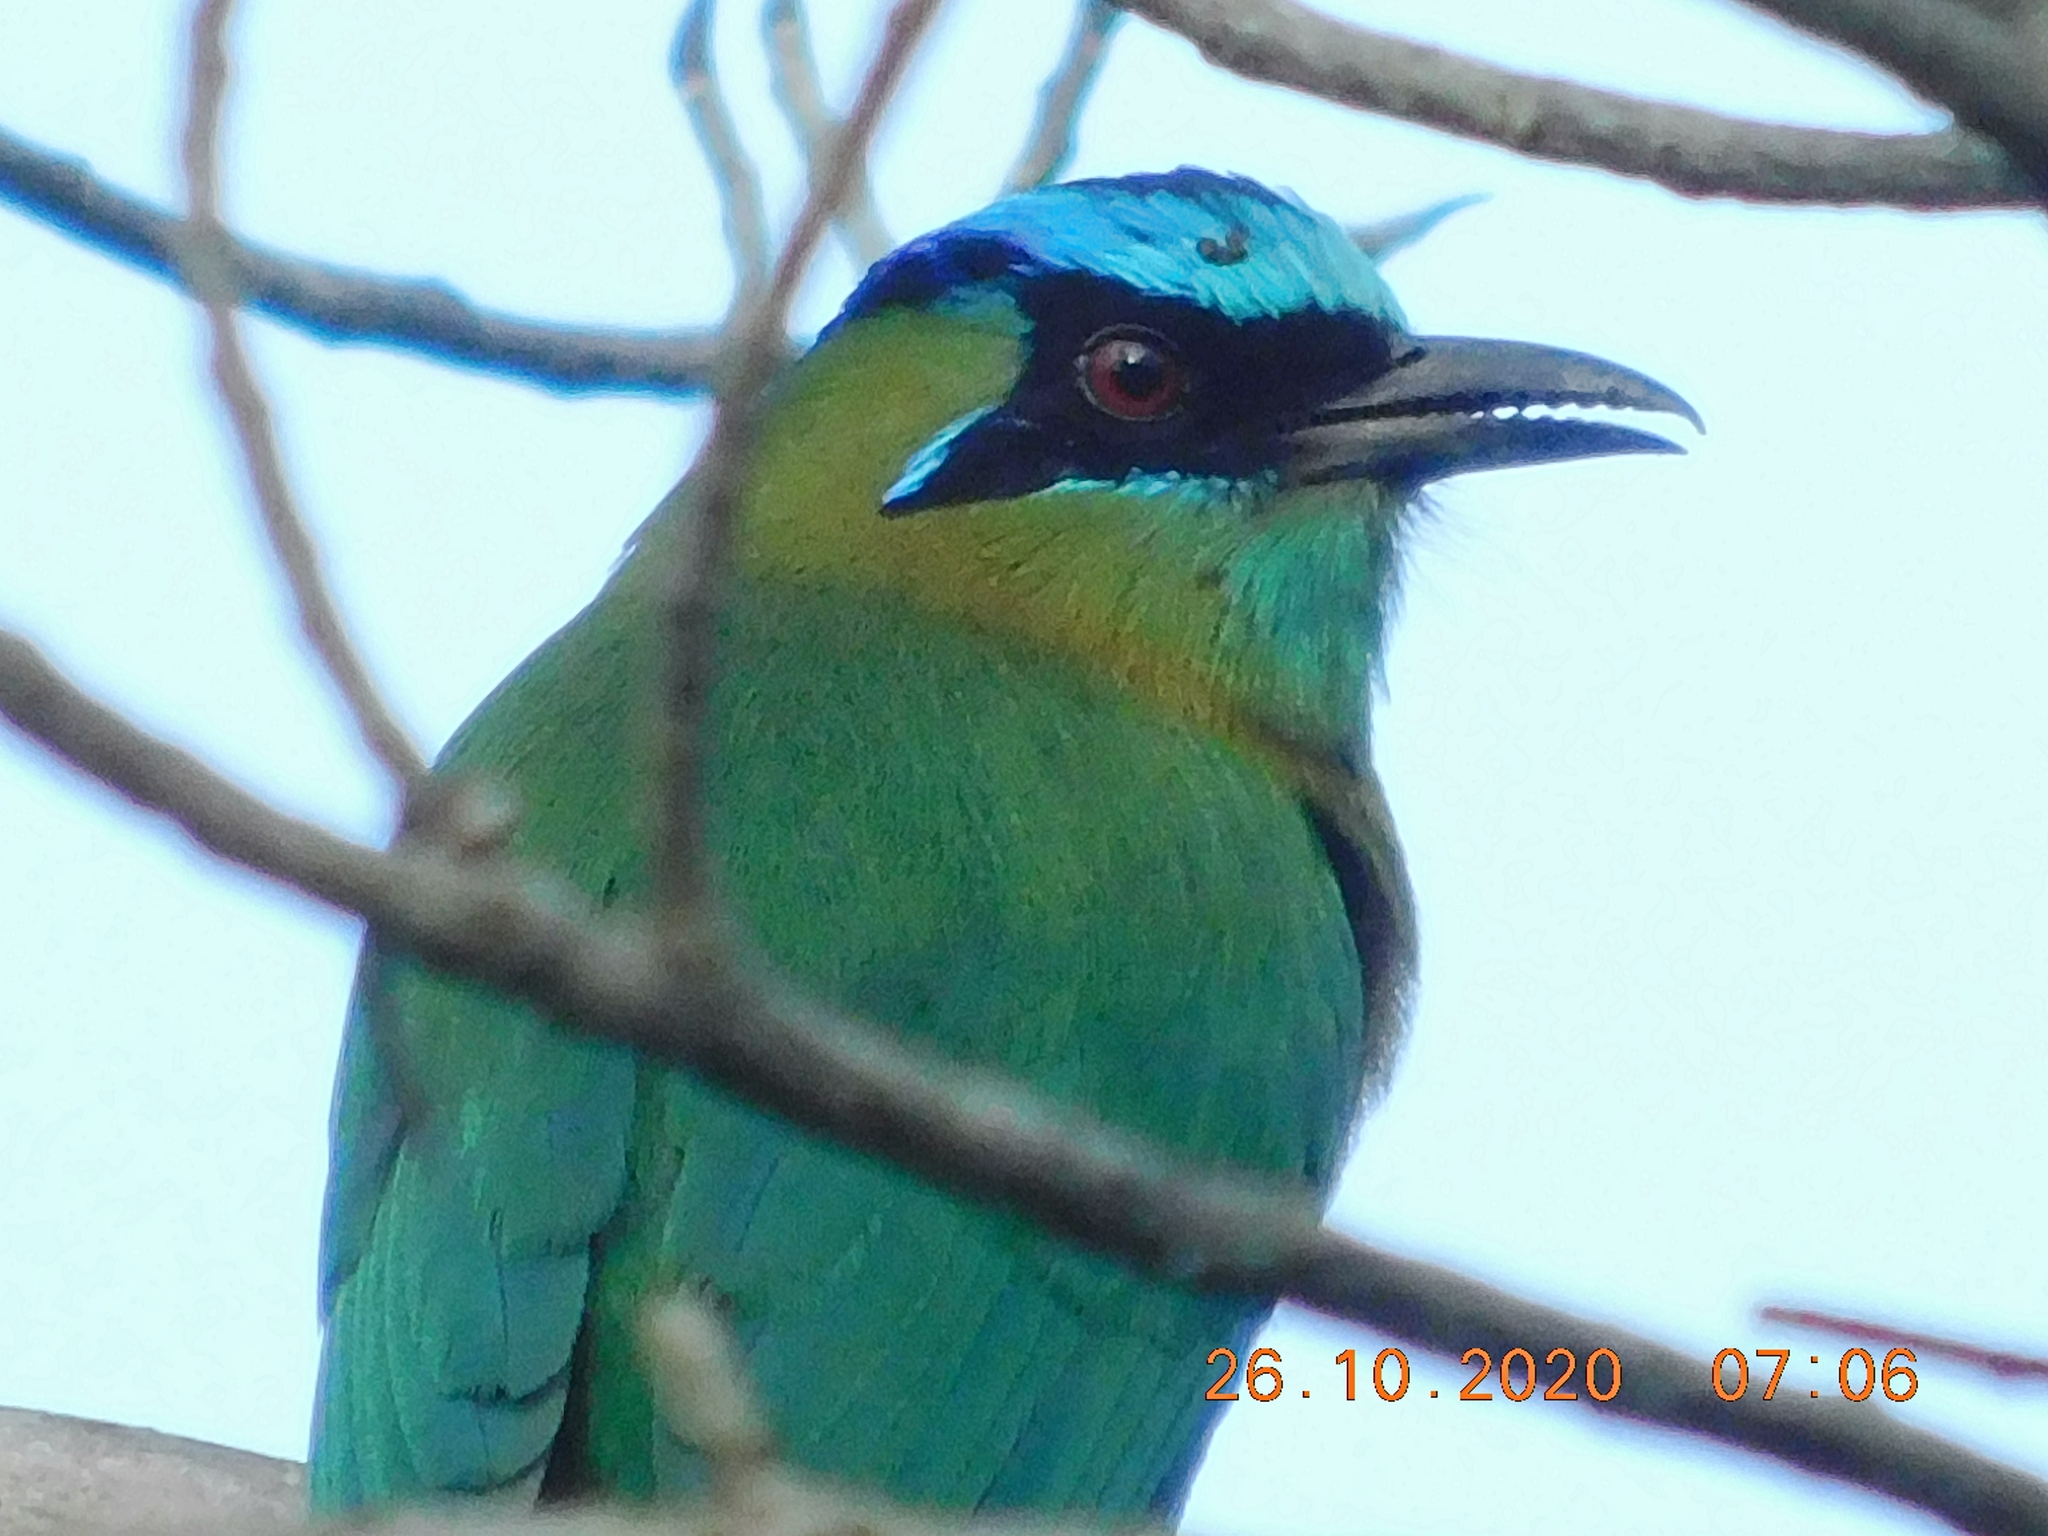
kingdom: Animalia
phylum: Chordata
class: Aves
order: Coraciiformes
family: Momotidae
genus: Momotus
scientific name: Momotus lessonii
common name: Lesson's motmot
